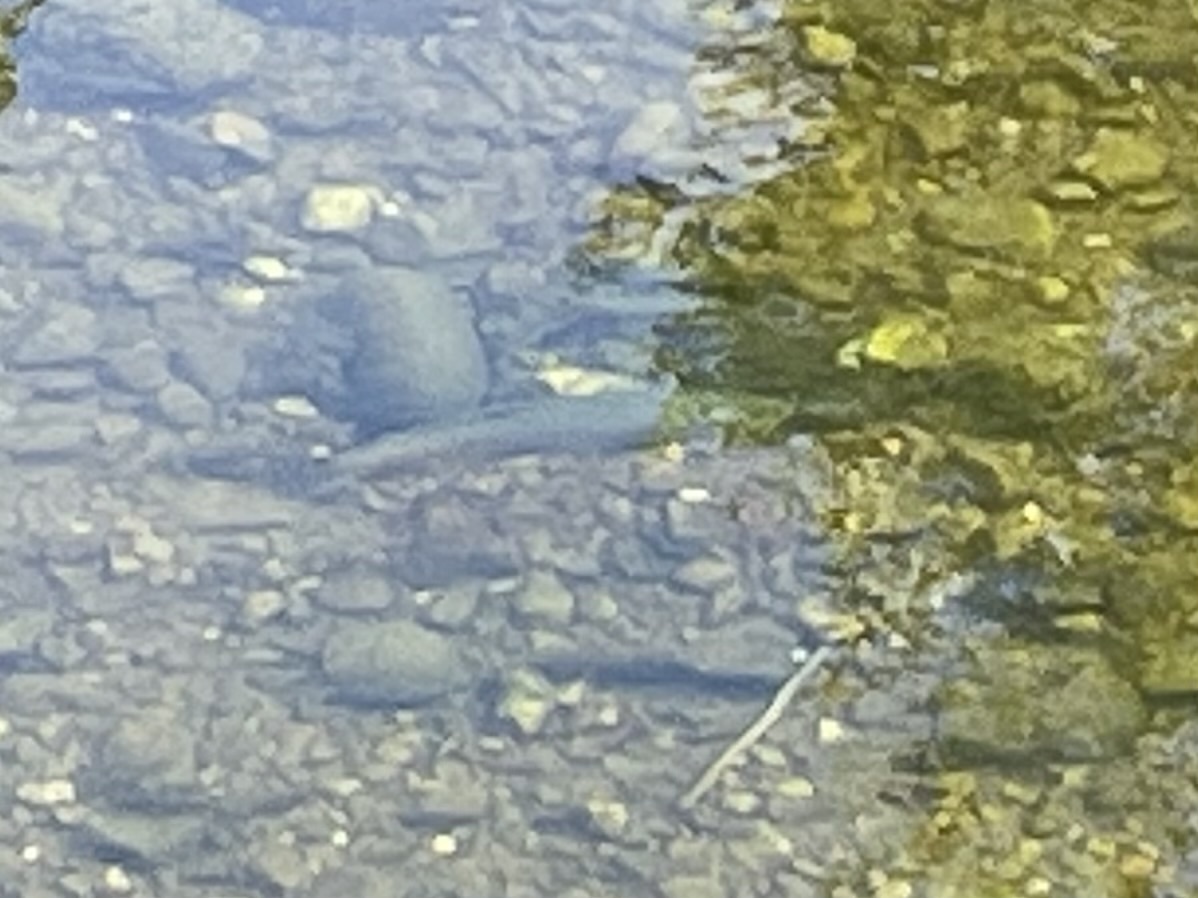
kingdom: Animalia
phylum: Chordata
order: Salmoniformes
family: Salmonidae
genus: Oncorhynchus
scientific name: Oncorhynchus mykiss
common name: Rainbow trout
